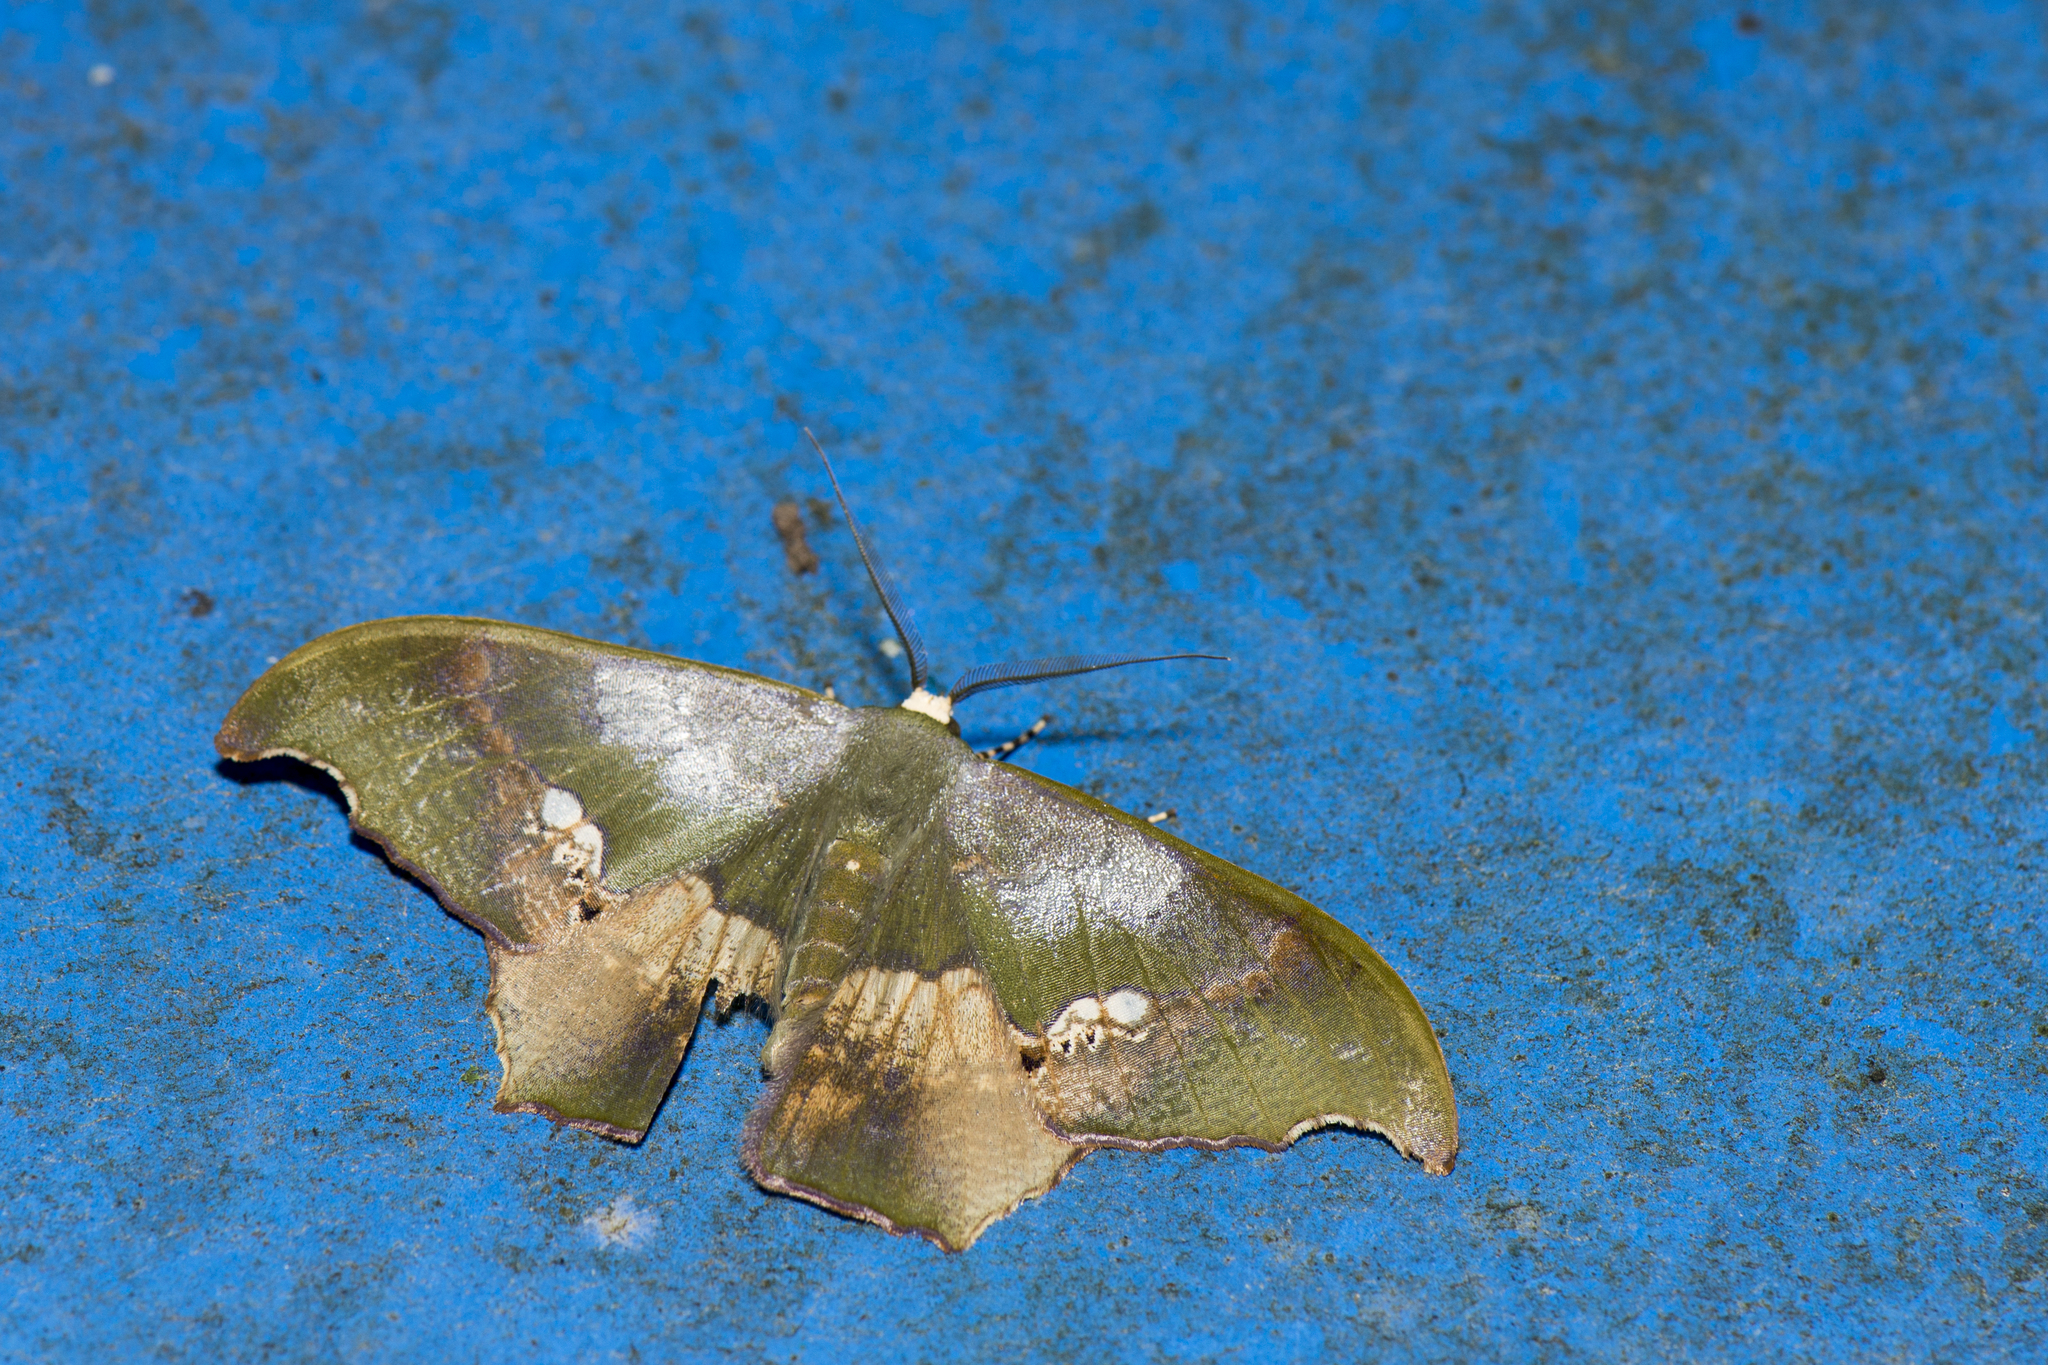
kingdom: Animalia
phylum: Arthropoda
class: Insecta
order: Lepidoptera
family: Geometridae
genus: Timandromorpha
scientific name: Timandromorpha discolor
